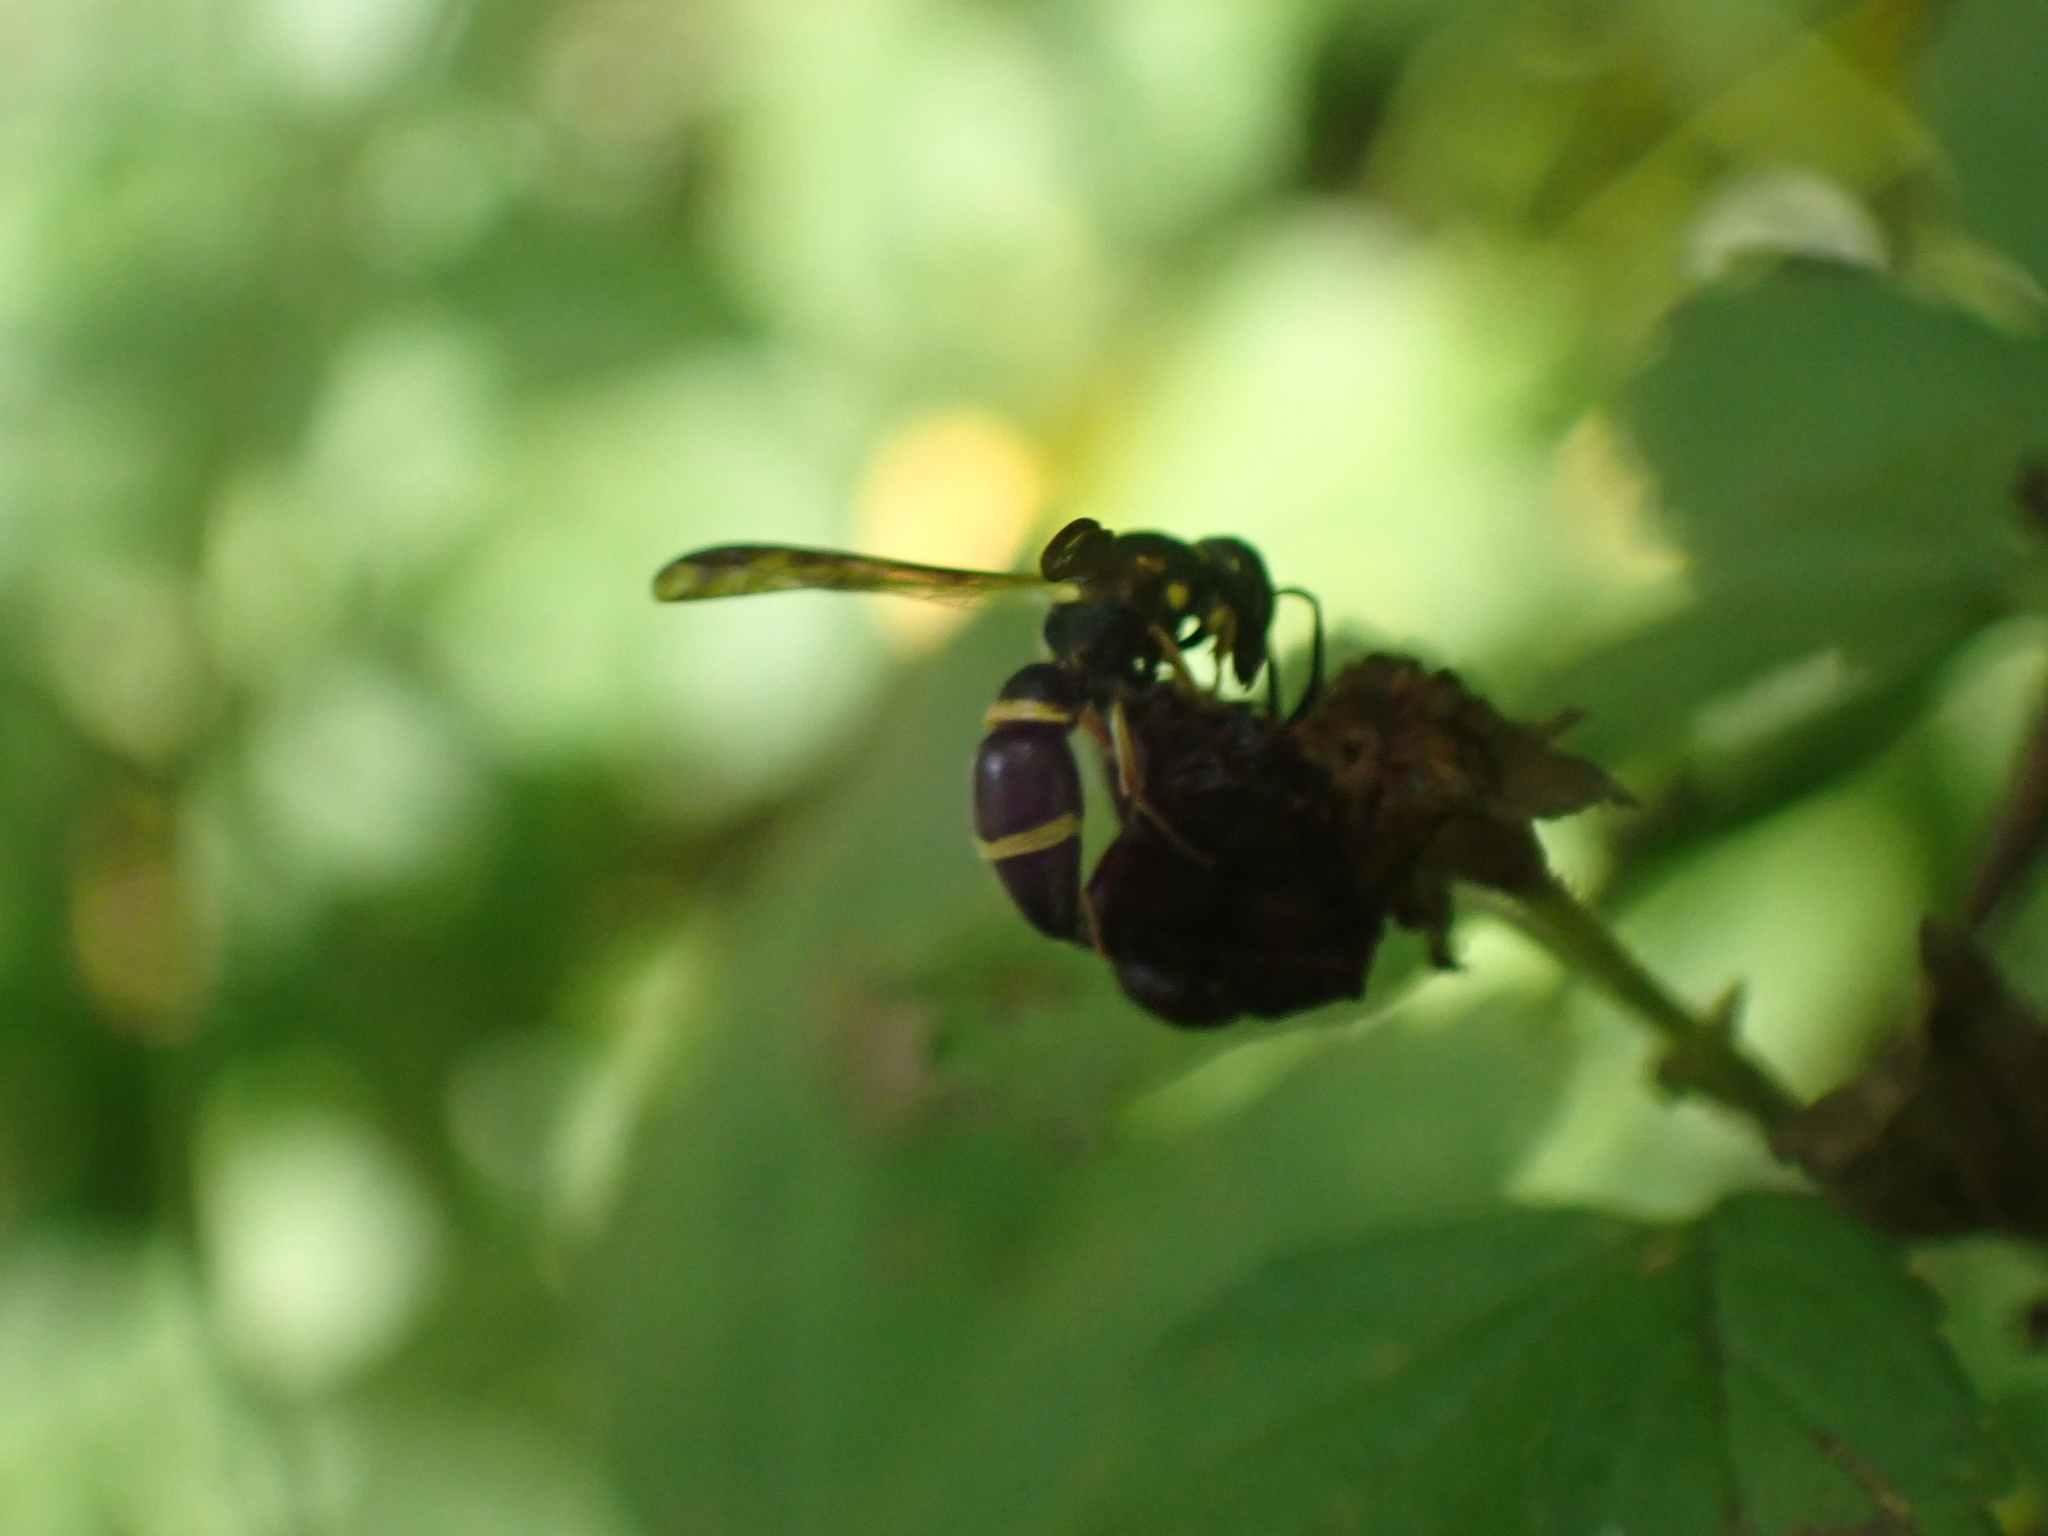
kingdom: Animalia
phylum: Arthropoda
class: Insecta
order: Hymenoptera
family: Eumenidae
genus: Parancistrocerus
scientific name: Parancistrocerus perennis
